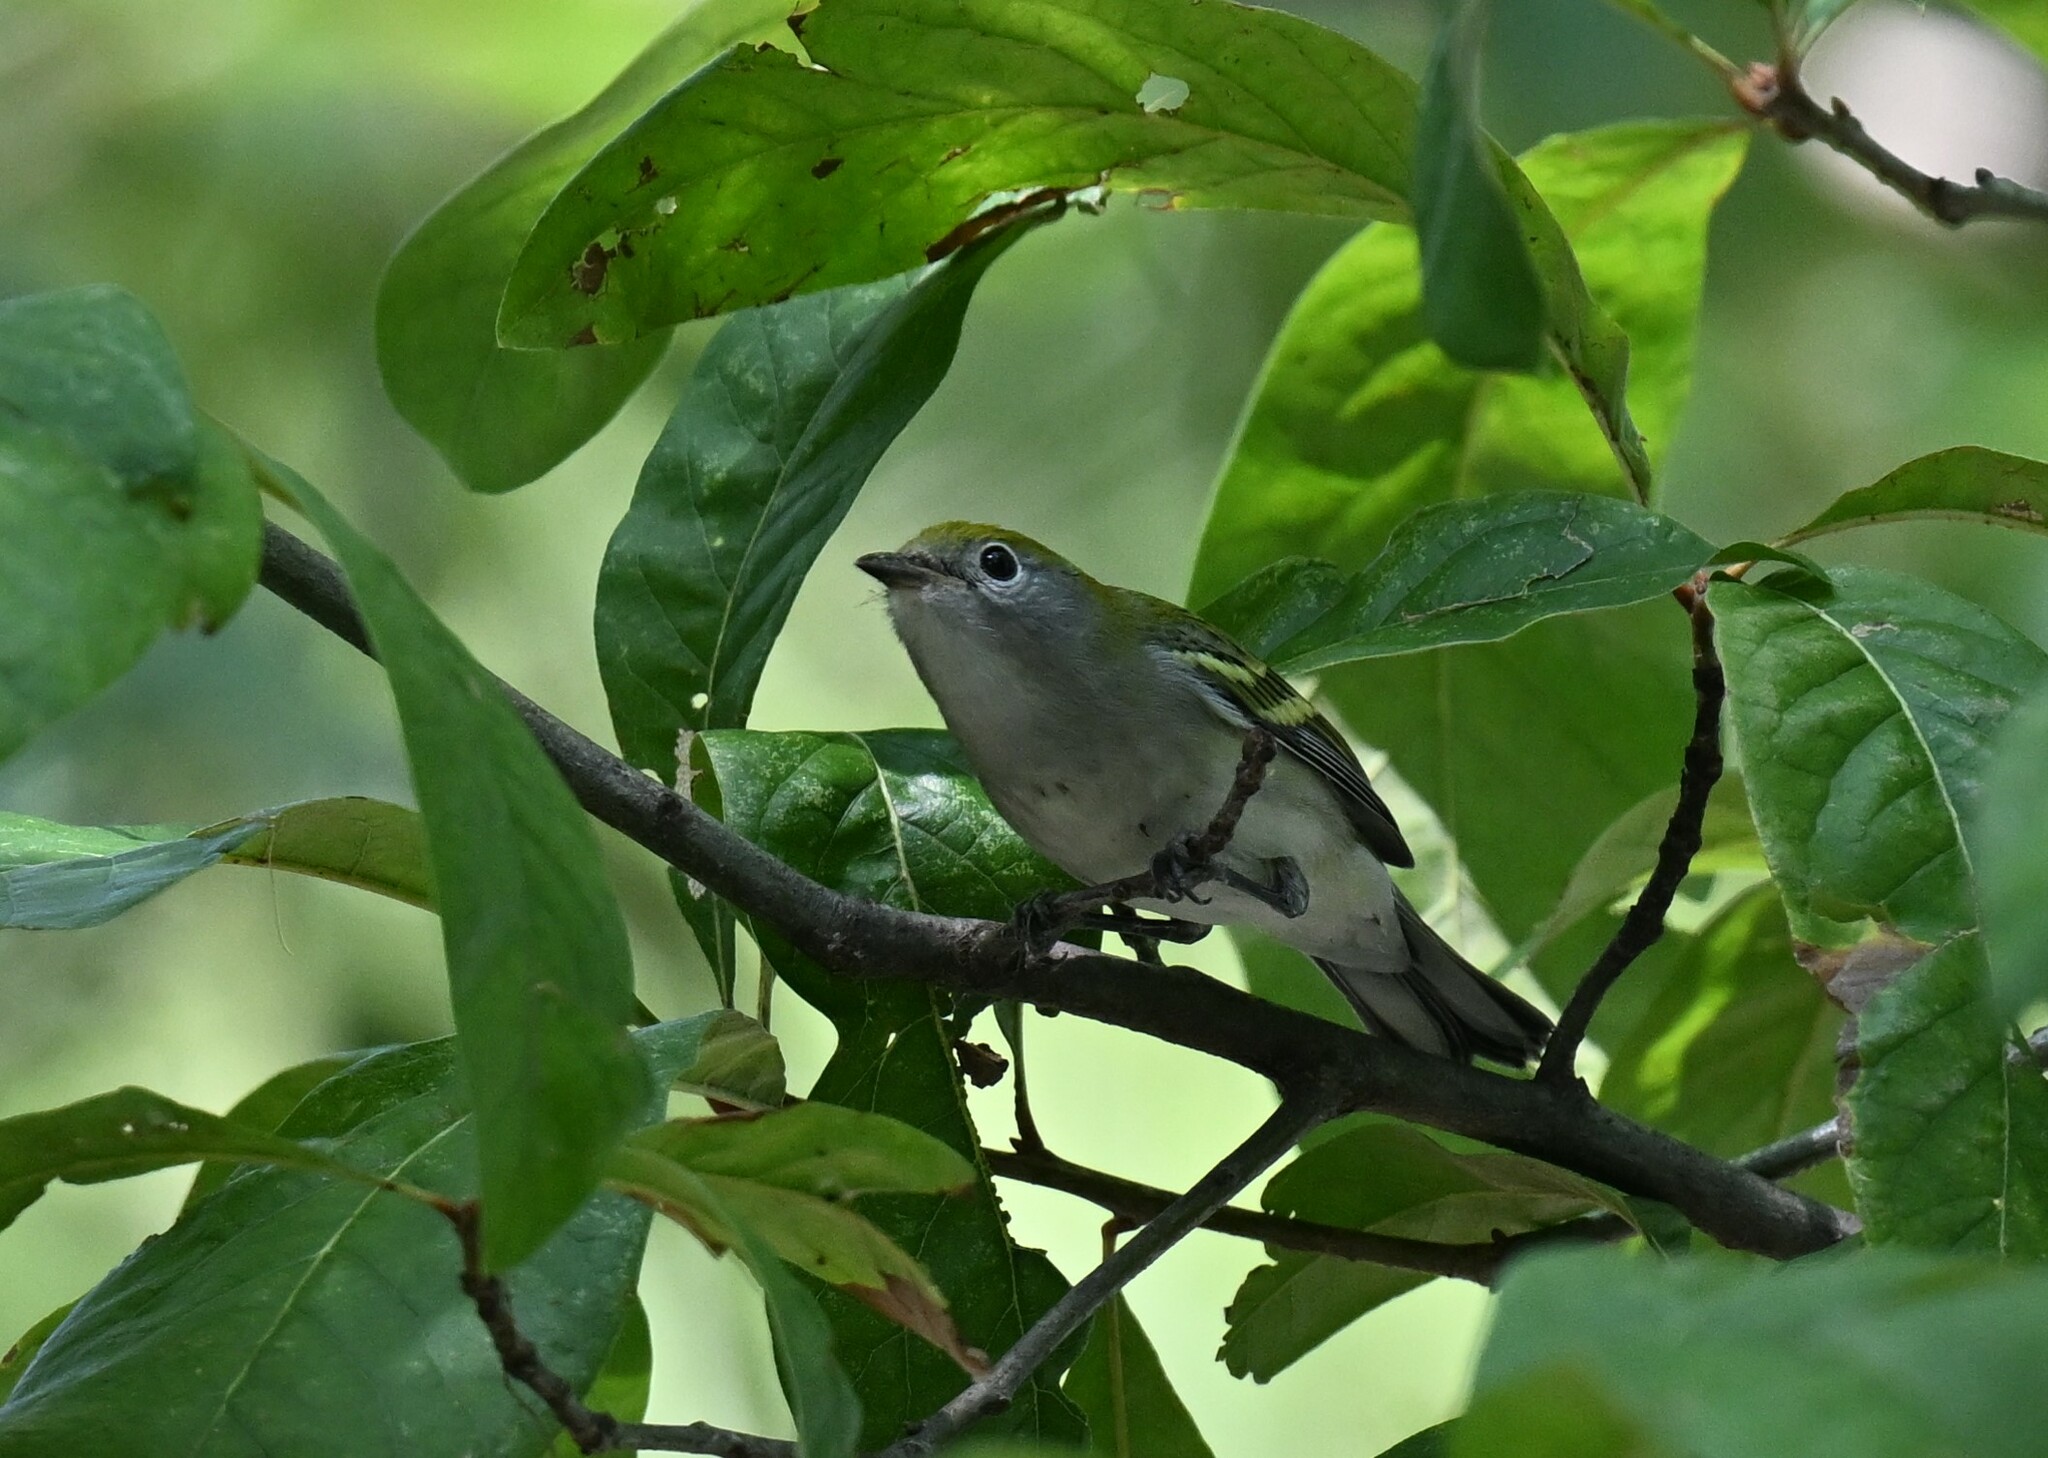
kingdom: Animalia
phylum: Chordata
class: Aves
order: Passeriformes
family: Parulidae
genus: Setophaga
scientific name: Setophaga pensylvanica
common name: Chestnut-sided warbler
